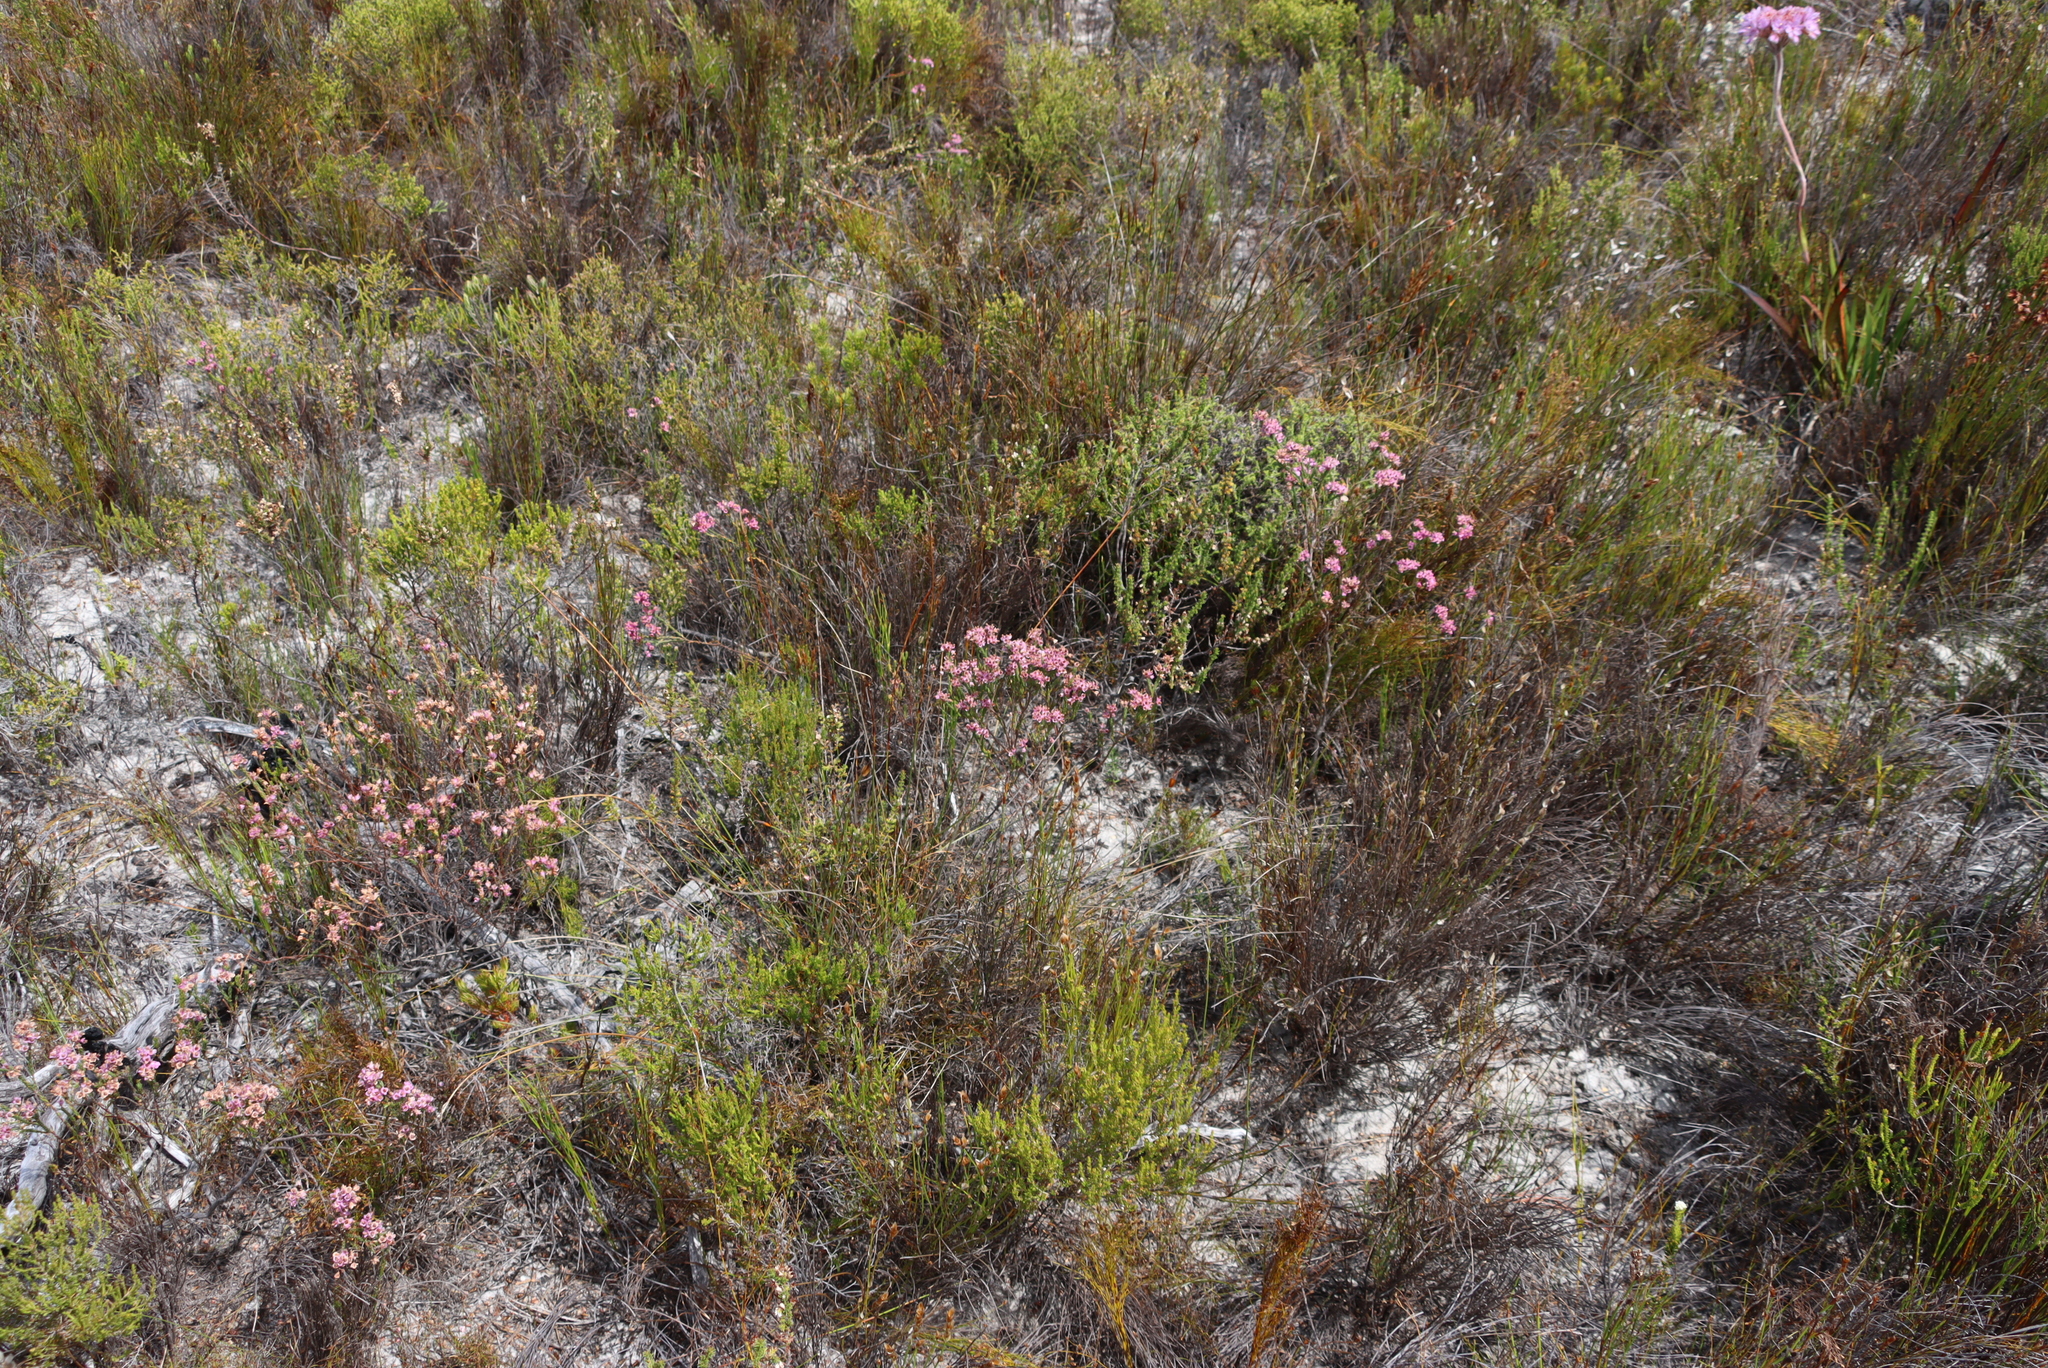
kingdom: Plantae
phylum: Tracheophyta
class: Magnoliopsida
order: Ericales
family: Ericaceae
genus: Erica
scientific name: Erica corifolia
